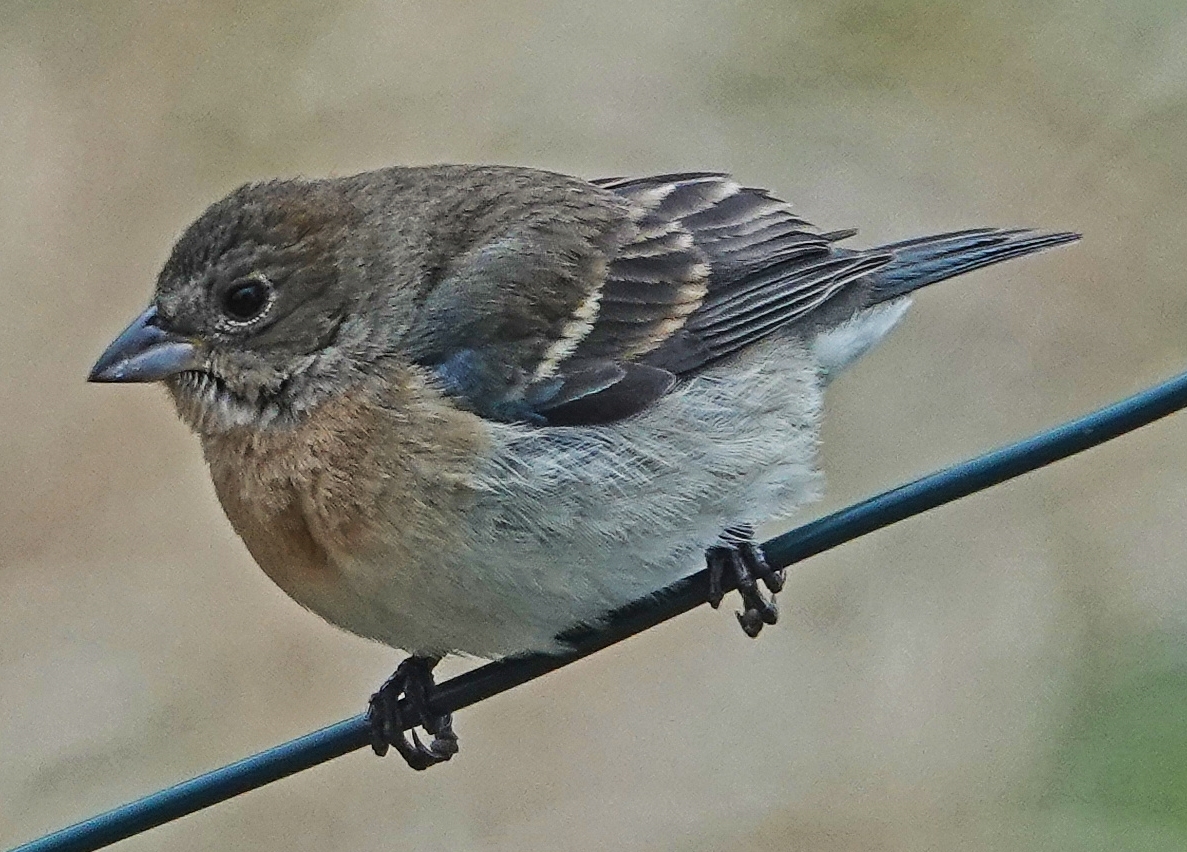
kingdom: Animalia
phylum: Chordata
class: Aves
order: Passeriformes
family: Cardinalidae
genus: Passerina
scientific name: Passerina amoena
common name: Lazuli bunting
